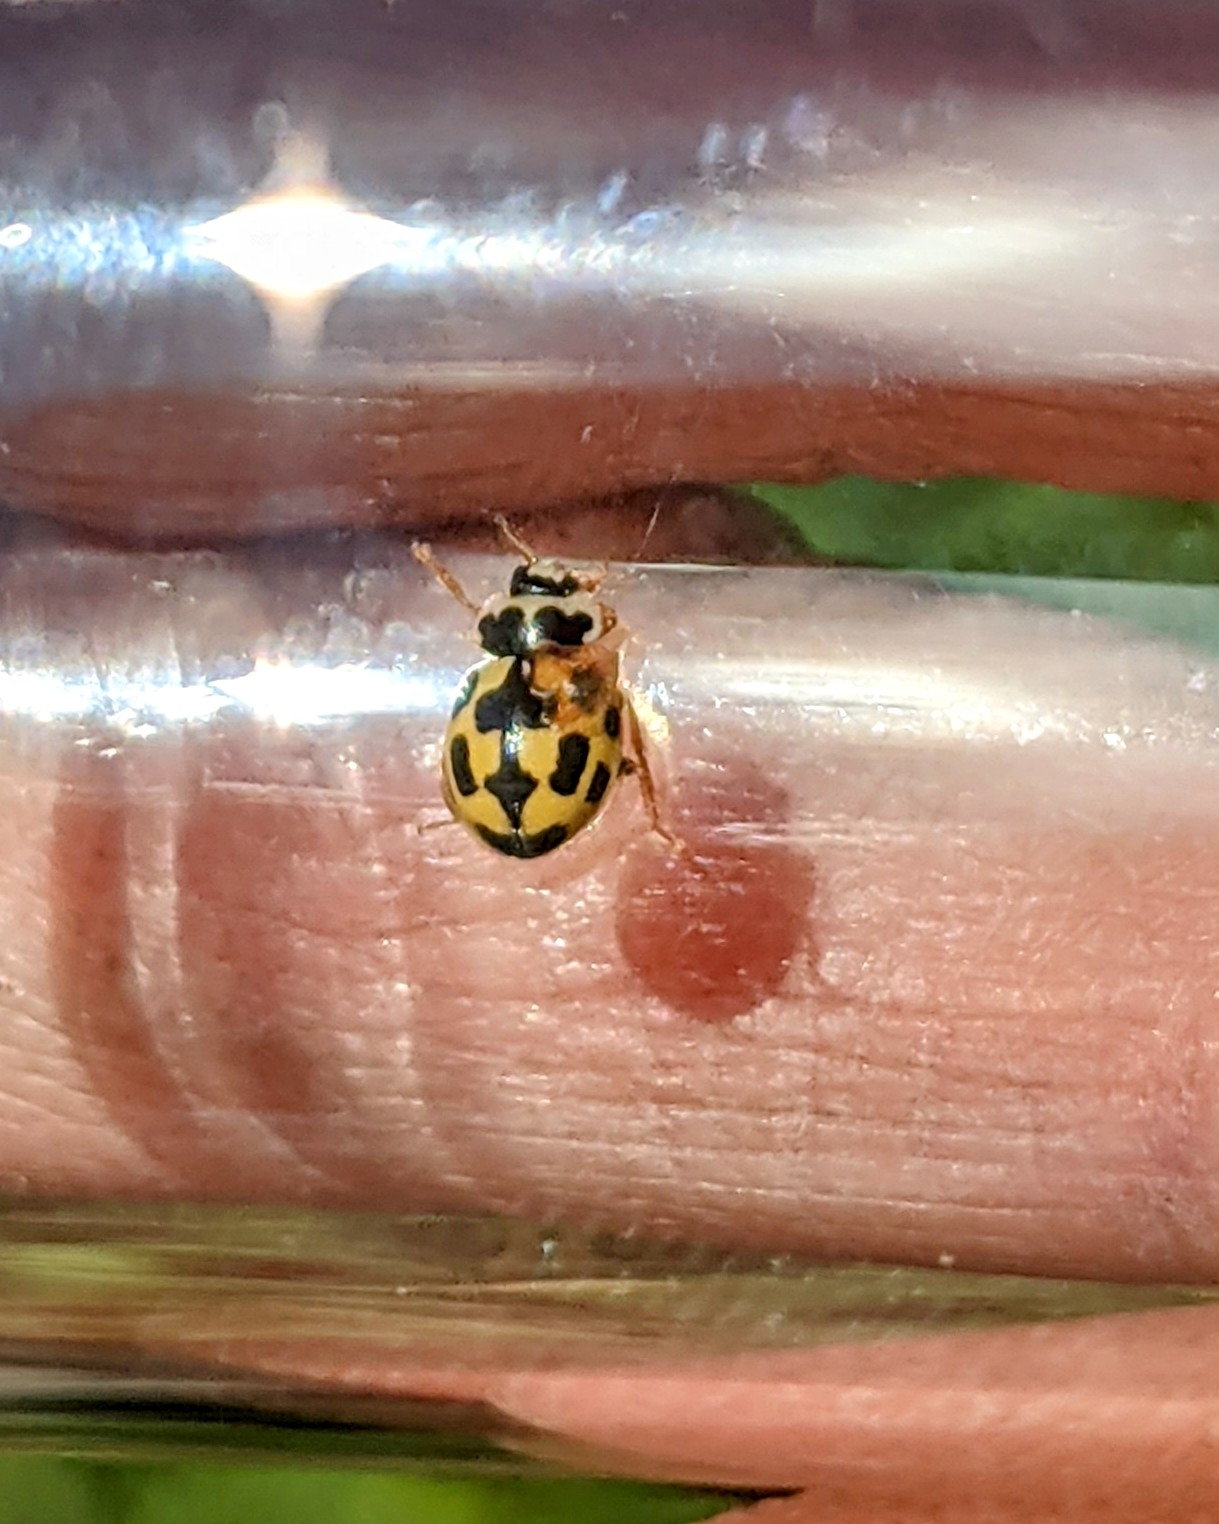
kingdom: Animalia
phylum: Arthropoda
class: Insecta
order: Coleoptera
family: Coccinellidae
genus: Propylaea
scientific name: Propylaea quatuordecimpunctata
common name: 14-spotted ladybird beetle
